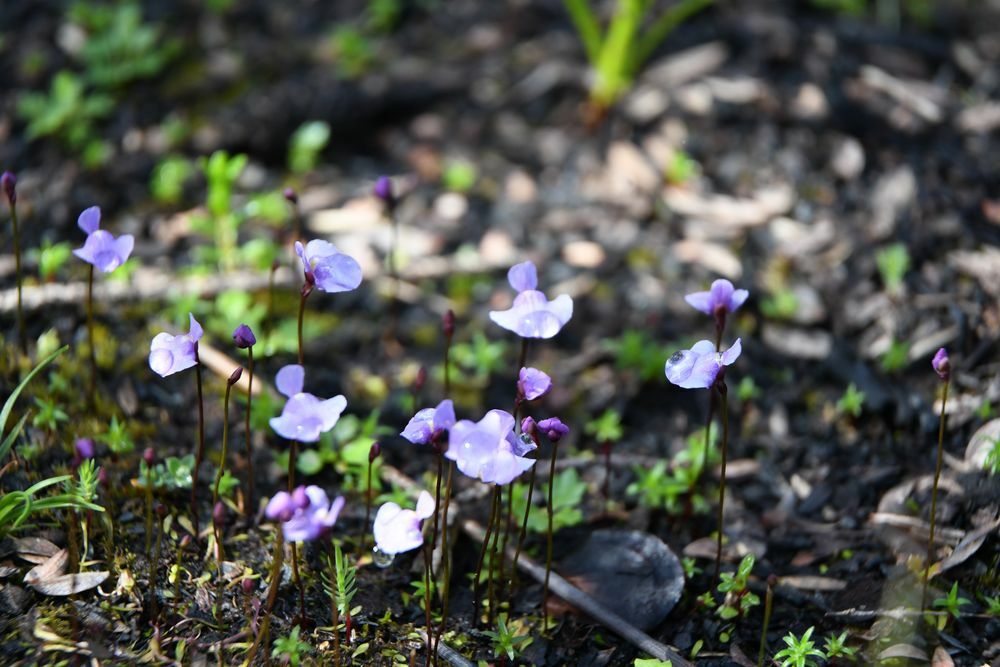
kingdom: Plantae
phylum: Tracheophyta
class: Magnoliopsida
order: Lamiales
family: Lentibulariaceae
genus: Utricularia
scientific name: Utricularia simplex
